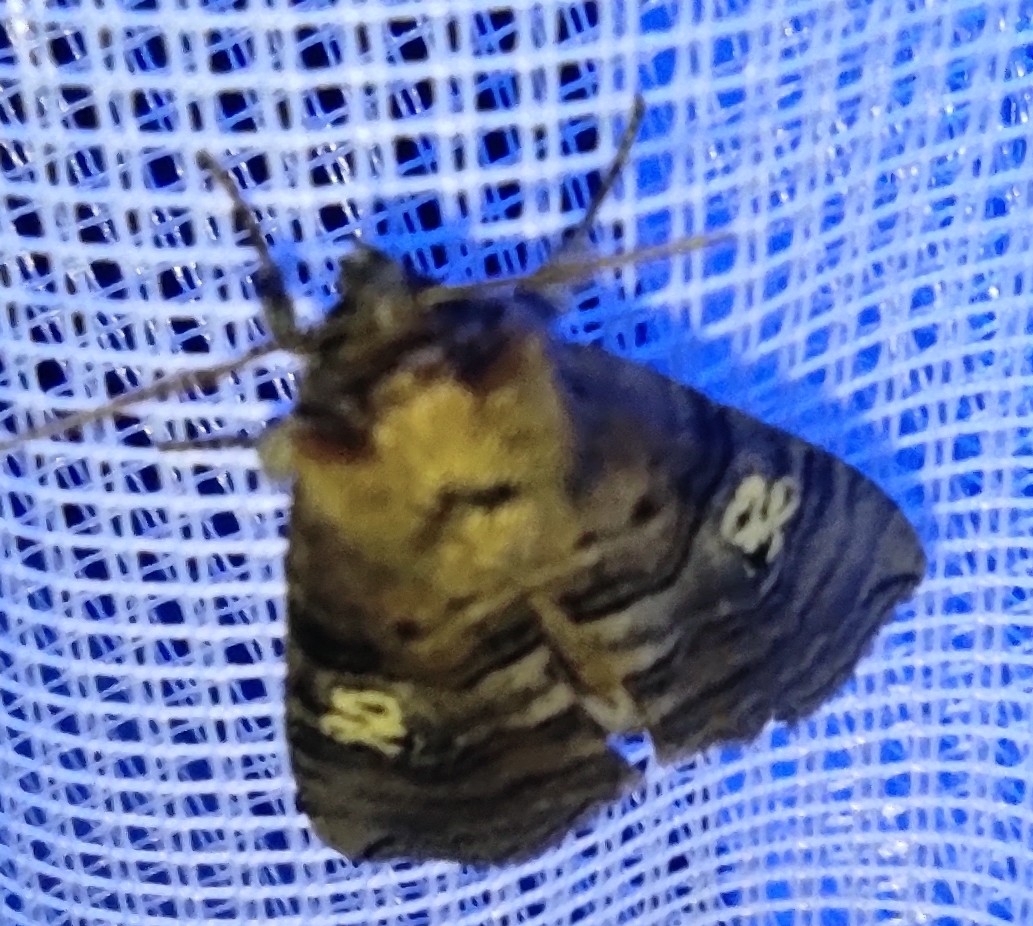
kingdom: Animalia
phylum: Arthropoda
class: Insecta
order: Lepidoptera
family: Drepanidae
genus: Tethea
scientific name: Tethea ocularis
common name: Figure of eighty
